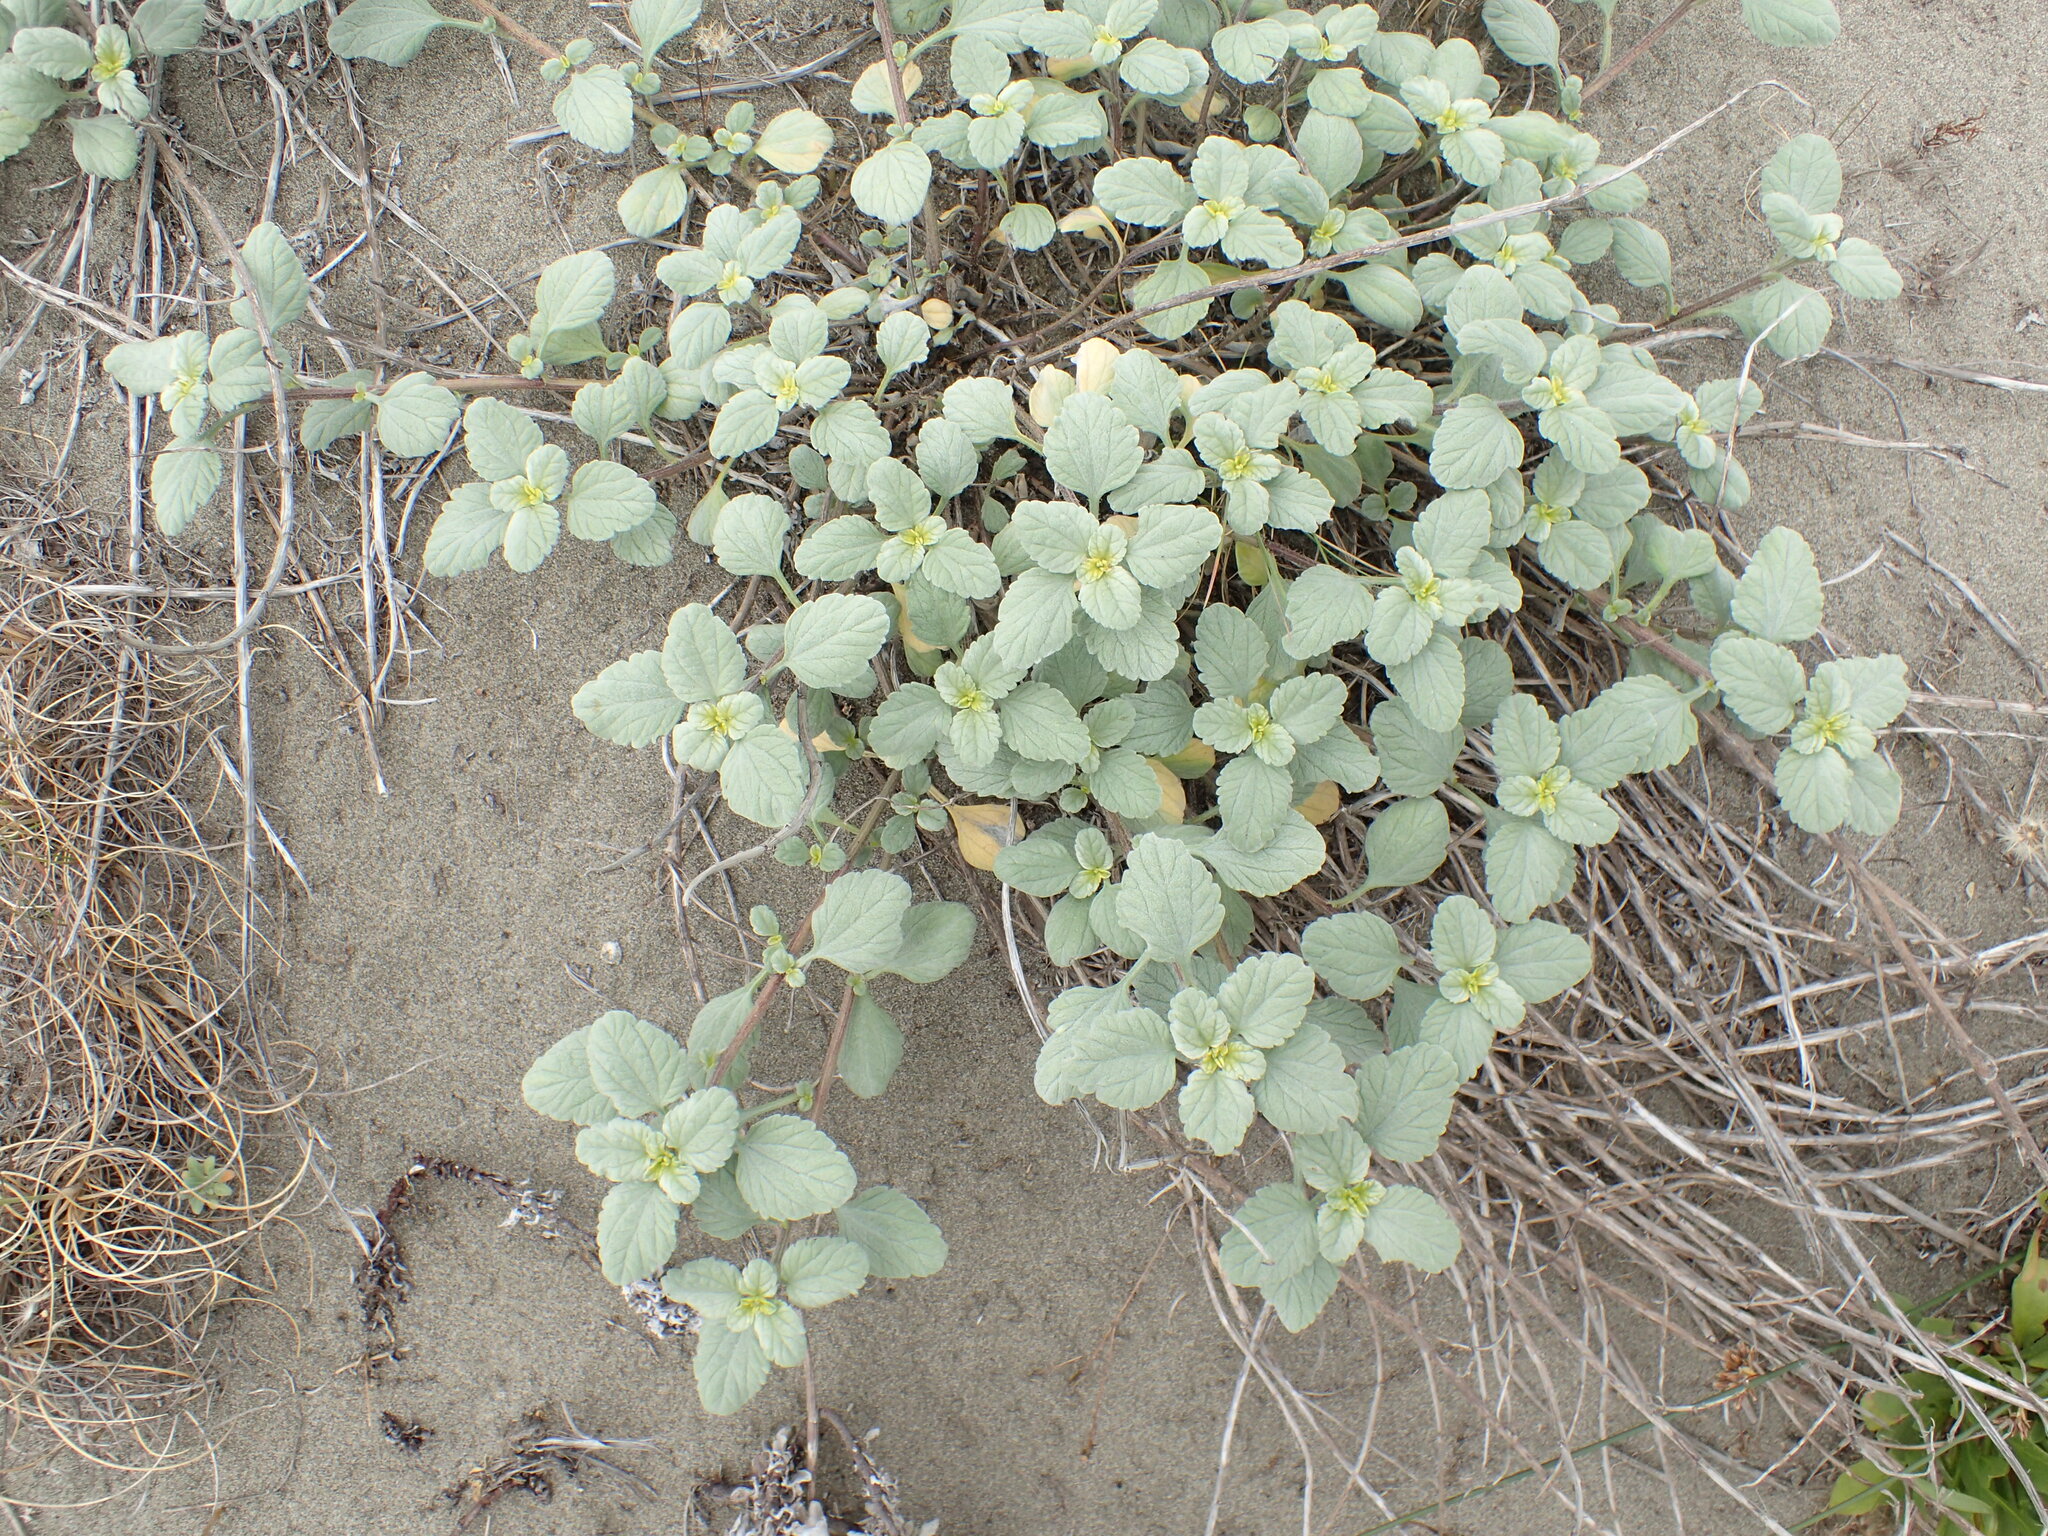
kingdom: Plantae
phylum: Tracheophyta
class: Magnoliopsida
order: Asterales
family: Asteraceae
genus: Ambrosia
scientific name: Ambrosia chamissonis
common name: Beachbur
